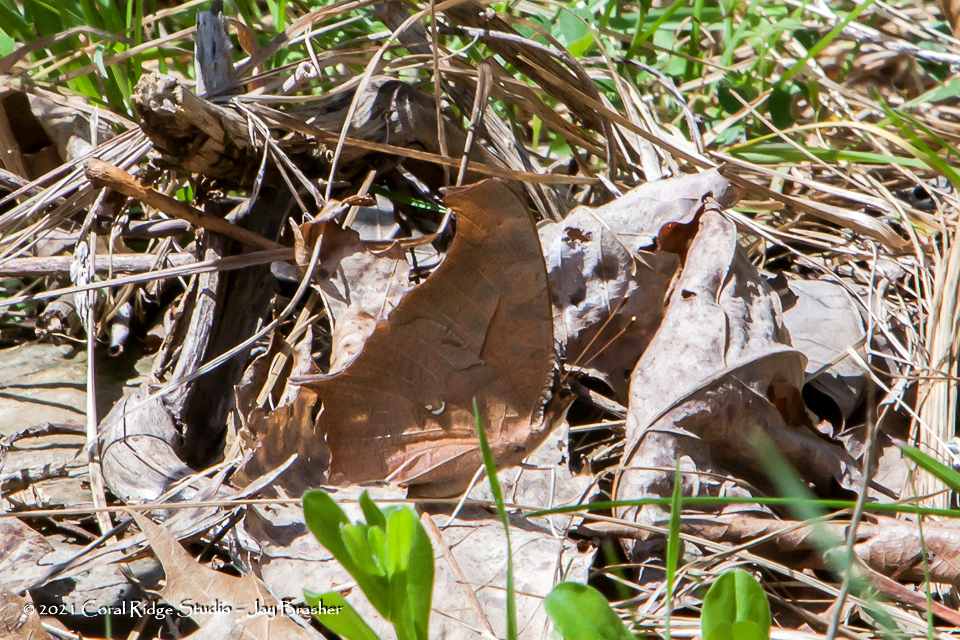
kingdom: Animalia
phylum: Arthropoda
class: Insecta
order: Lepidoptera
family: Nymphalidae
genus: Polygonia
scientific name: Polygonia interrogationis
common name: Question mark
